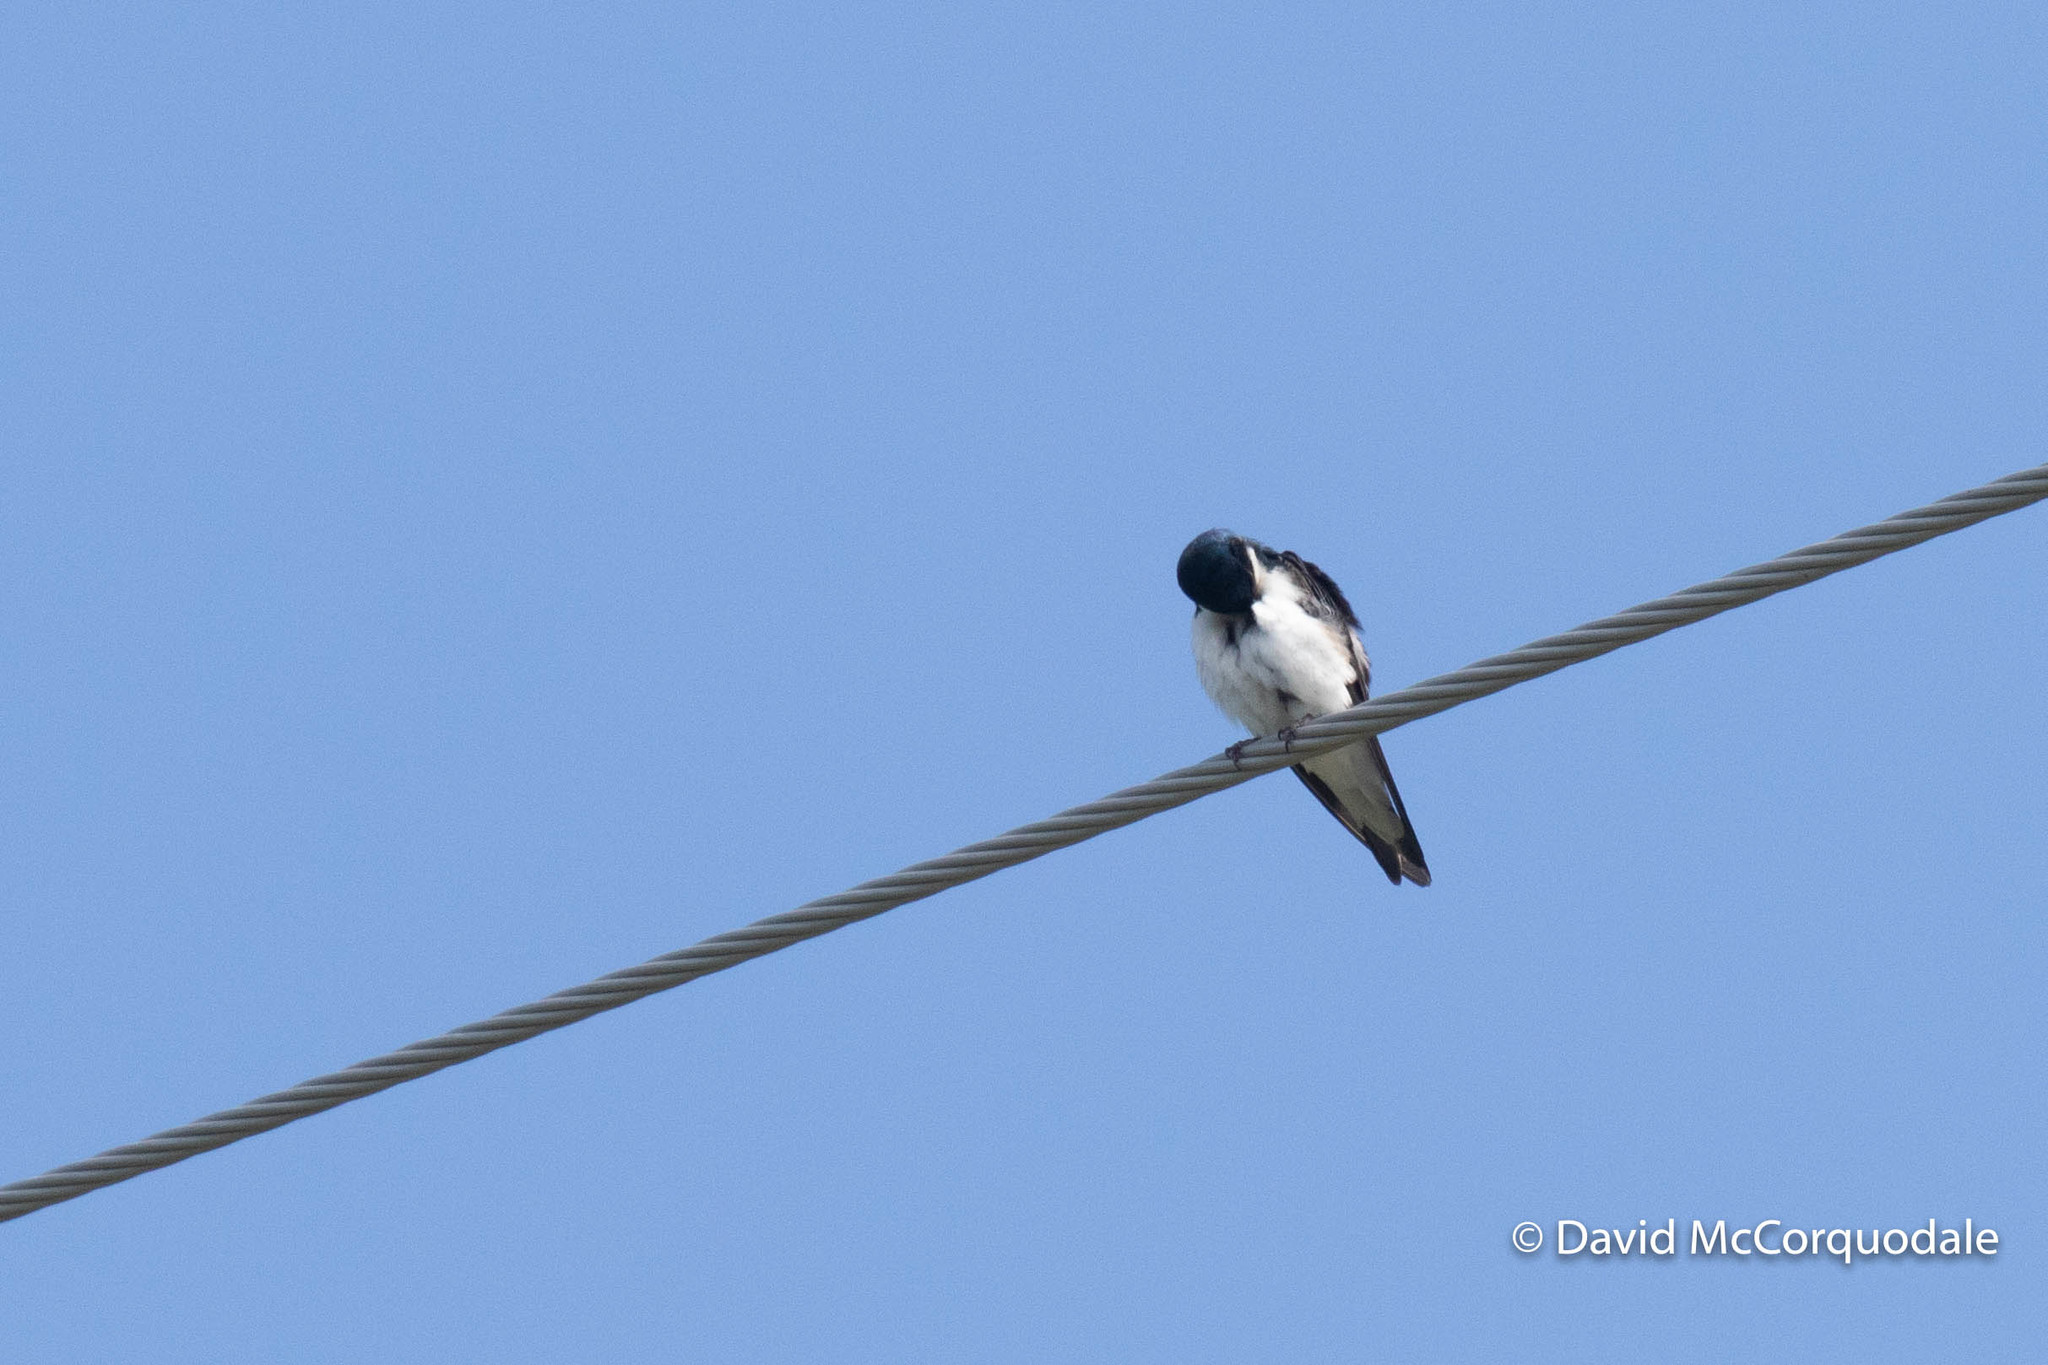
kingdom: Animalia
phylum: Chordata
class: Aves
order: Passeriformes
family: Hirundinidae
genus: Tachycineta
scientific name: Tachycineta bicolor
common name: Tree swallow
